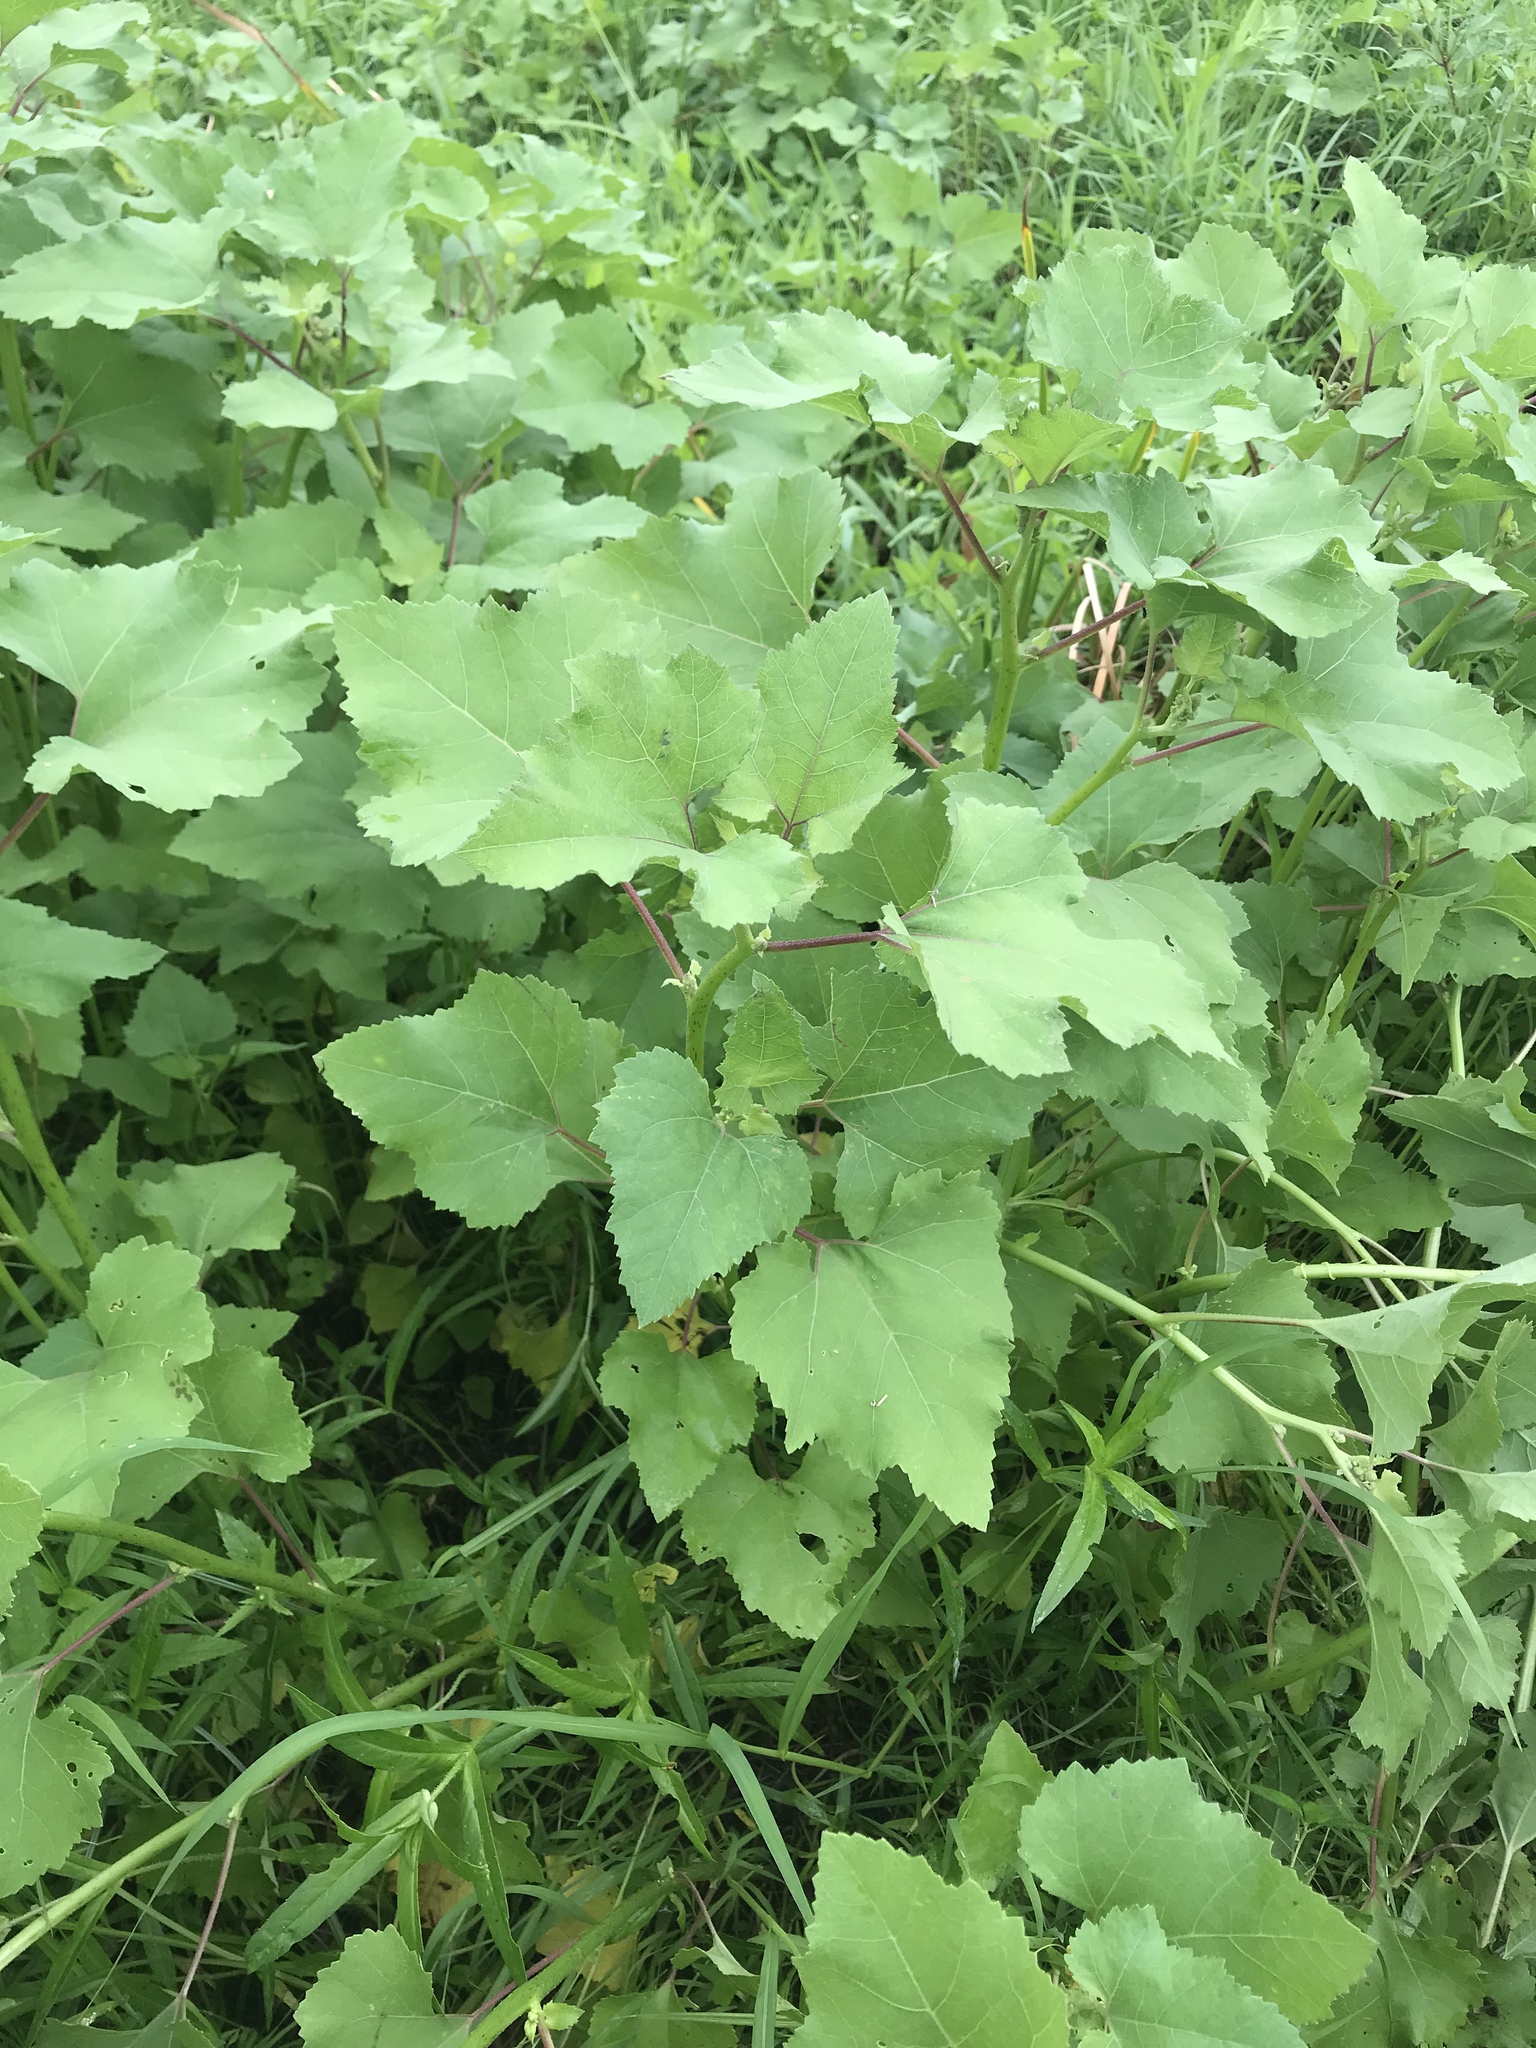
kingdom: Plantae
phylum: Tracheophyta
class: Magnoliopsida
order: Asterales
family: Asteraceae
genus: Xanthium
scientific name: Xanthium strumarium
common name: Rough cocklebur
